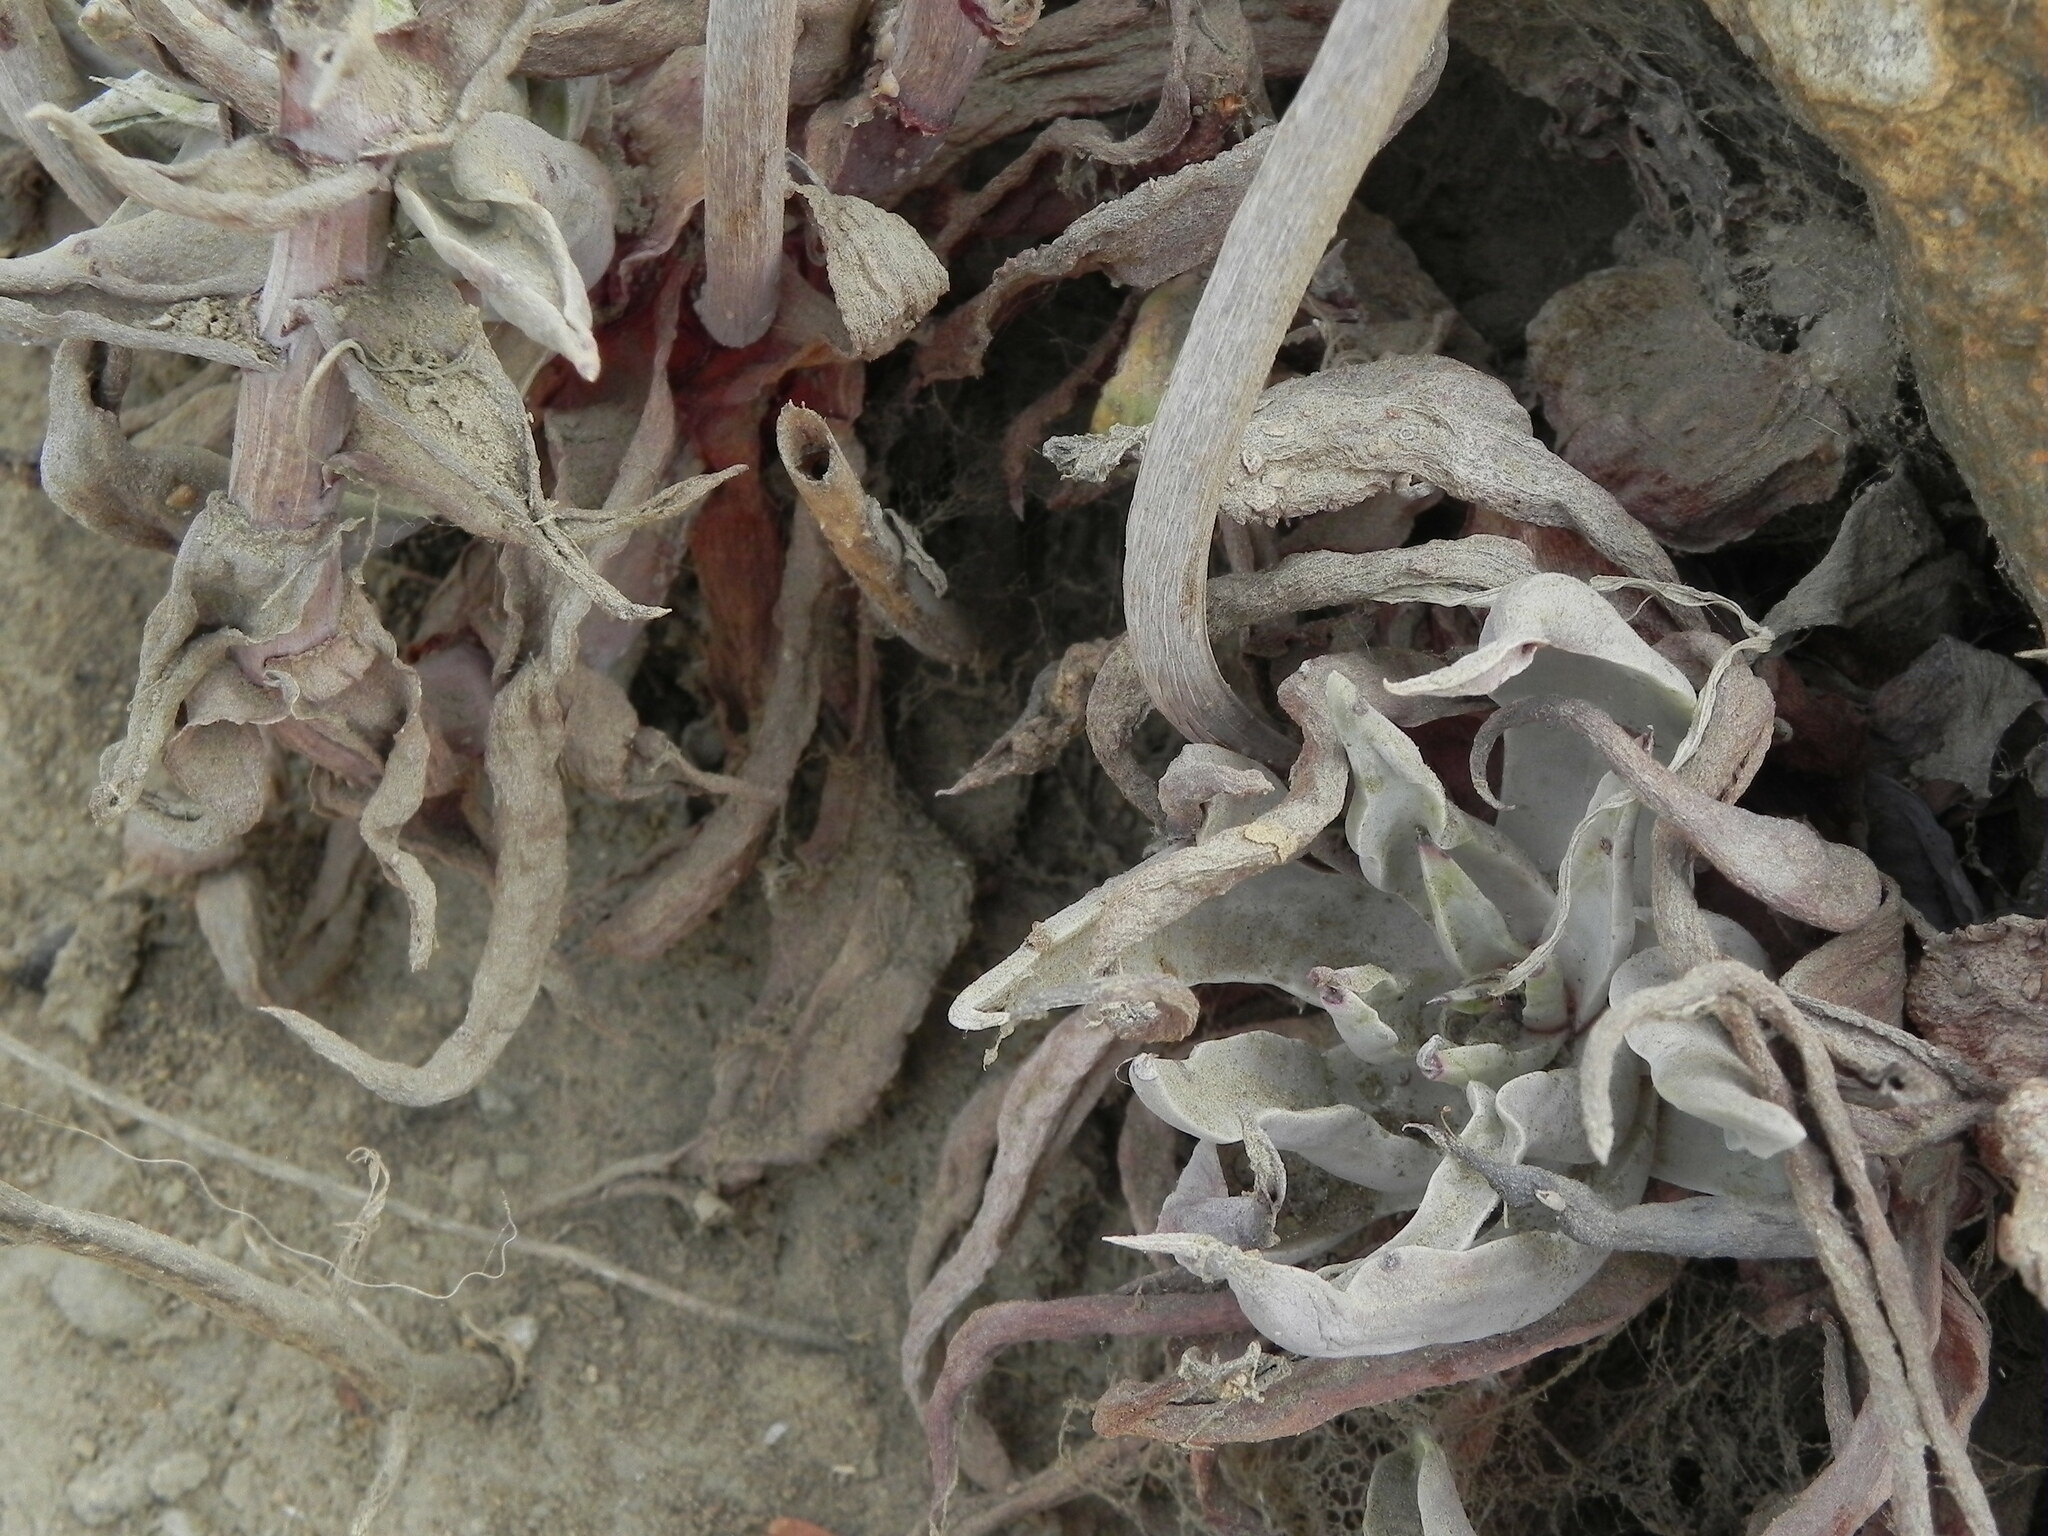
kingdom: Plantae
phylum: Tracheophyta
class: Magnoliopsida
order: Saxifragales
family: Crassulaceae
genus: Dudleya
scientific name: Dudleya lanceolata
